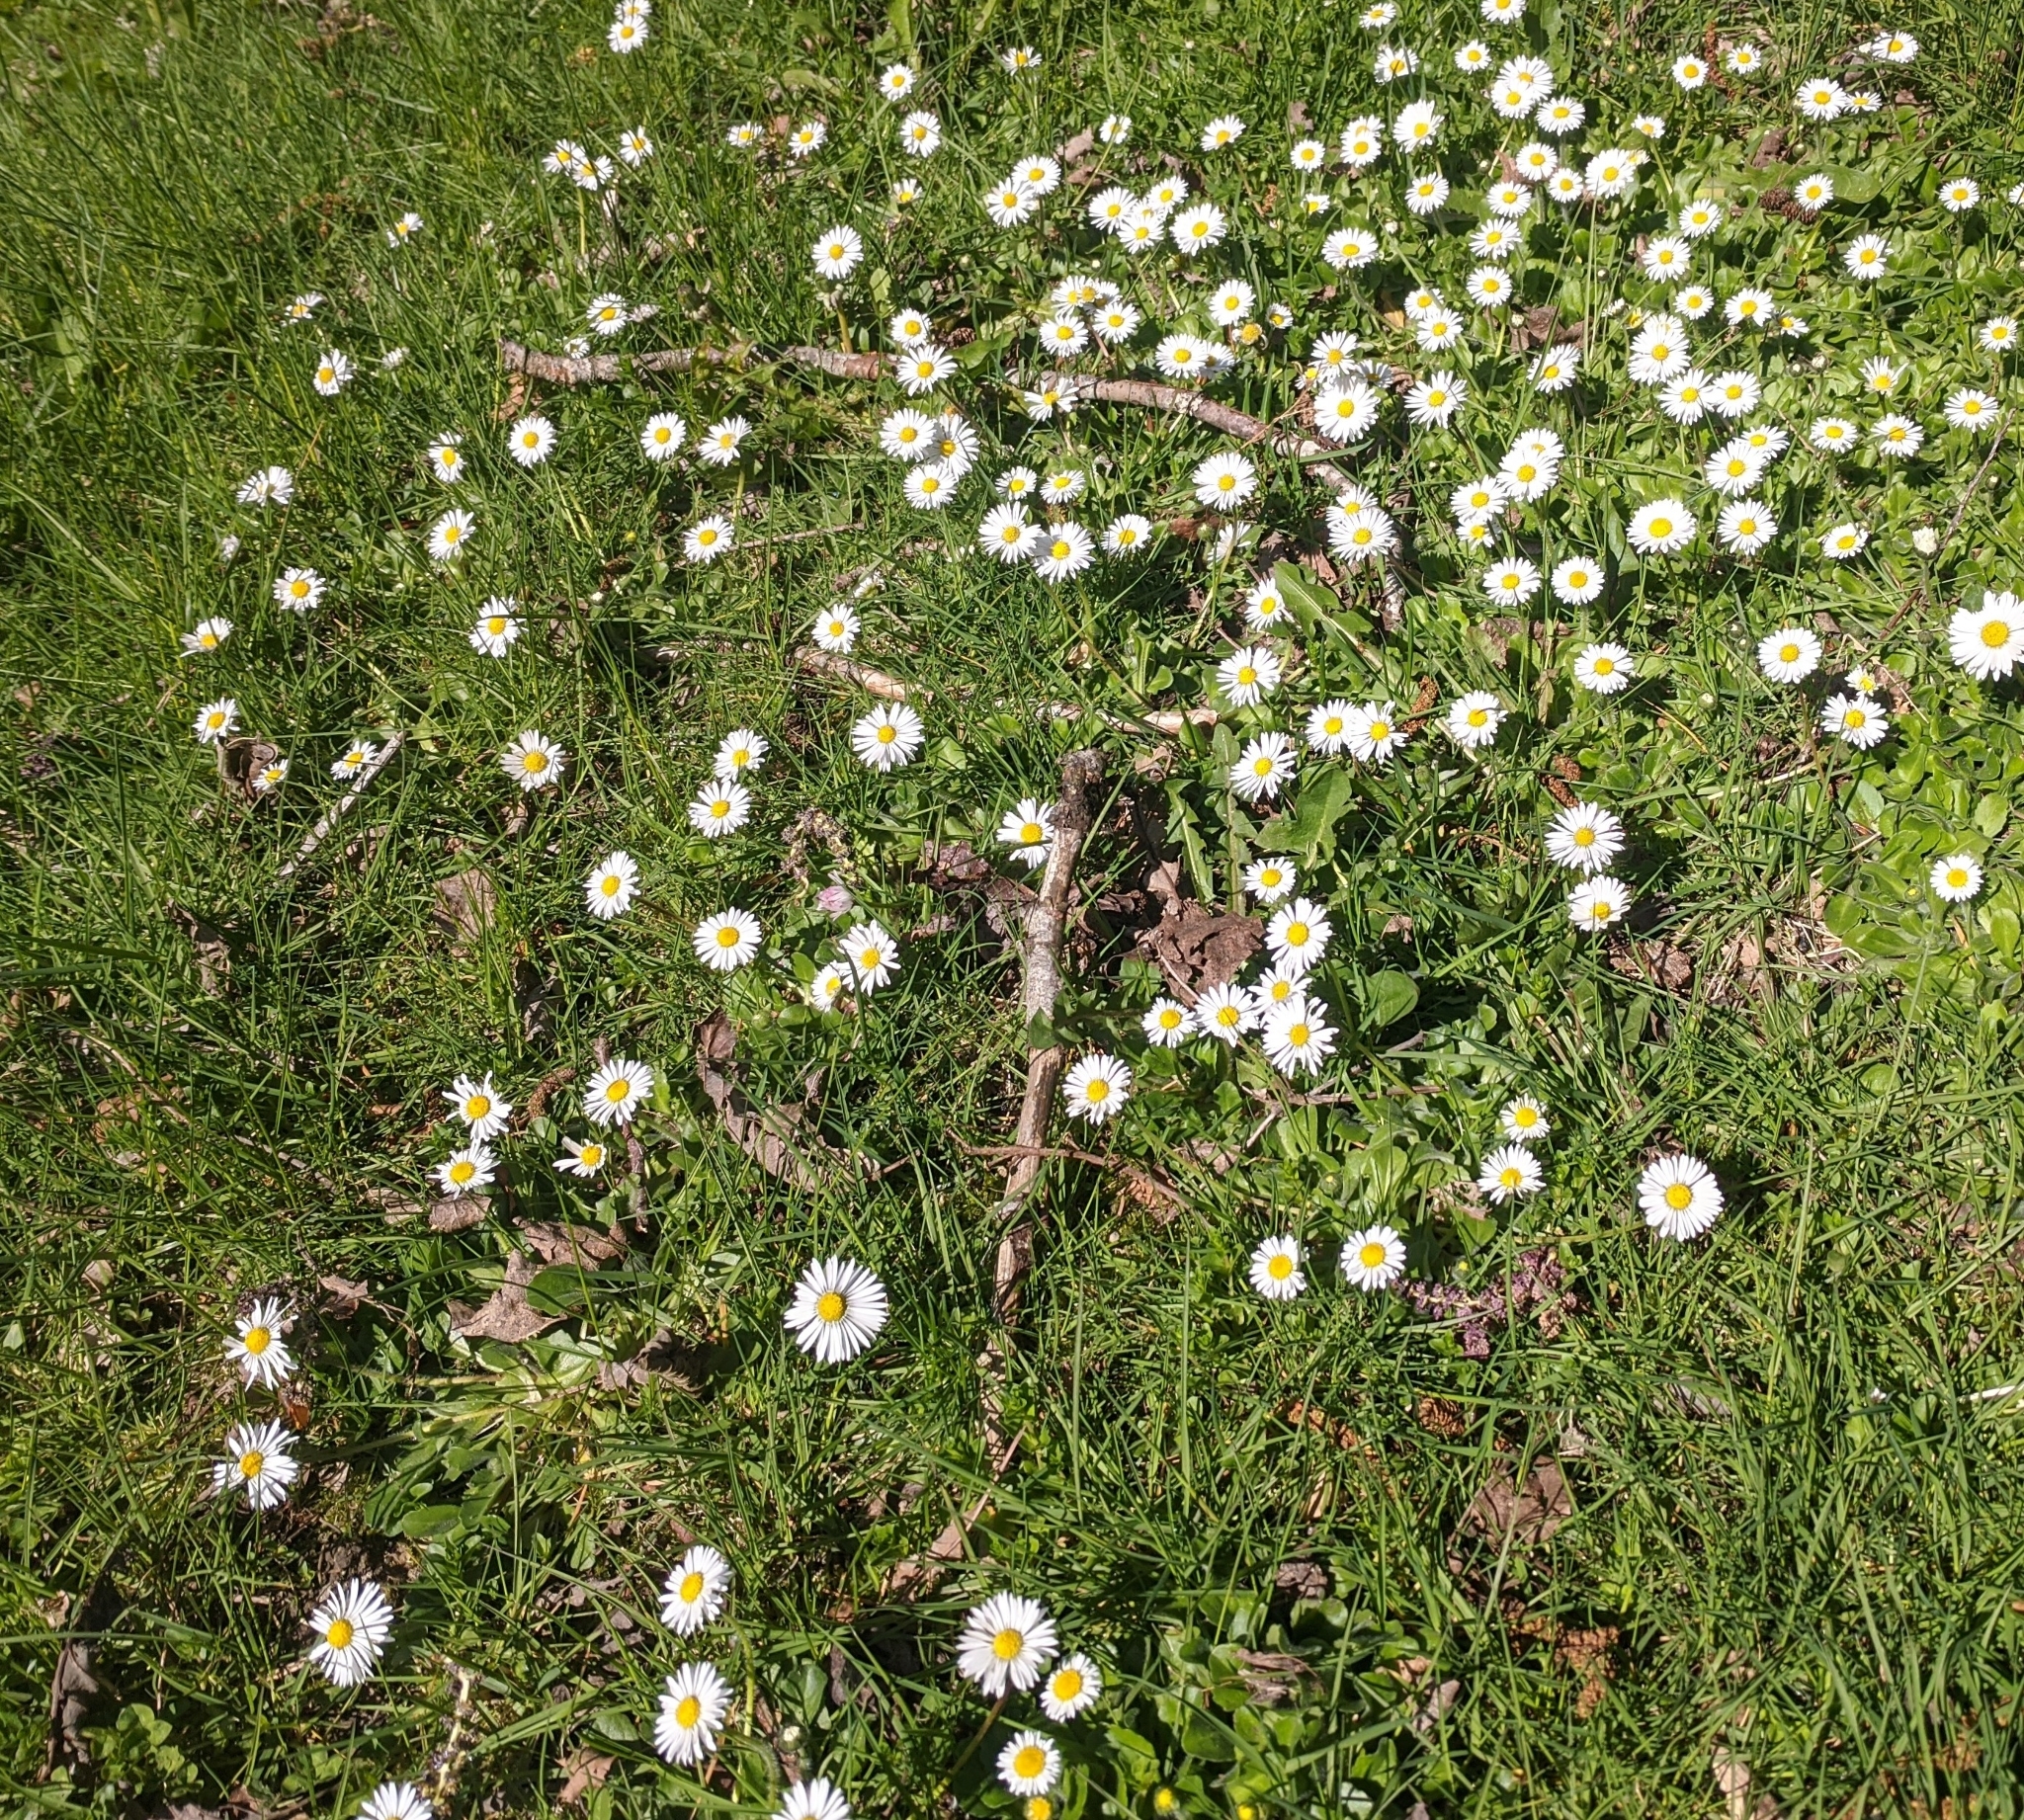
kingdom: Plantae
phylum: Tracheophyta
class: Magnoliopsida
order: Asterales
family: Asteraceae
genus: Bellis
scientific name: Bellis perennis
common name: Lawndaisy
